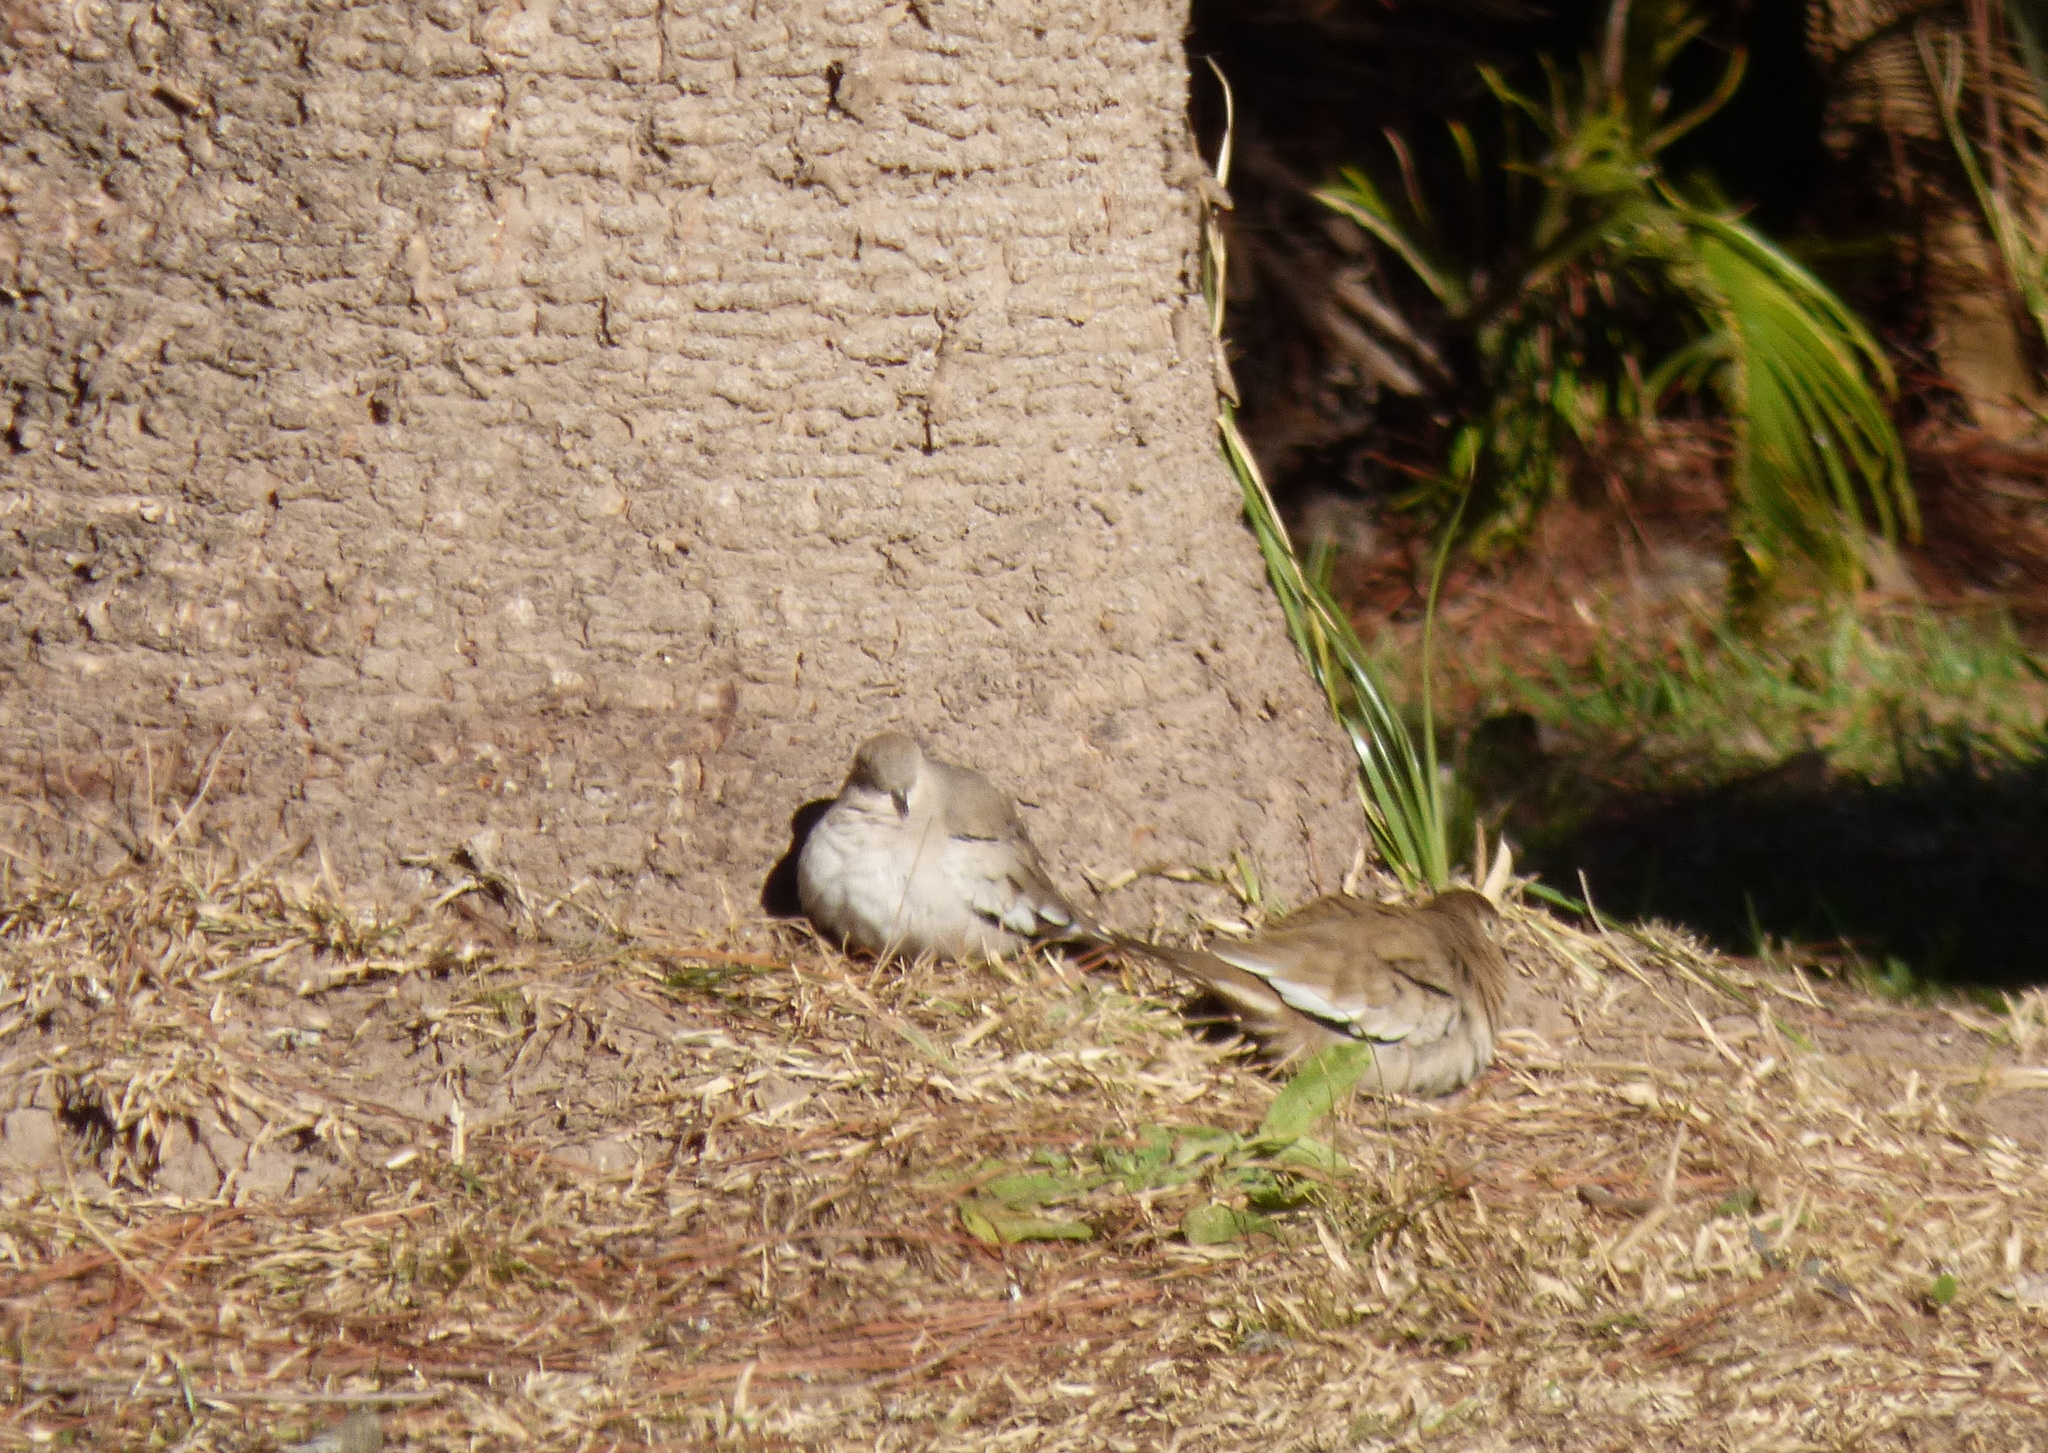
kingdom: Animalia
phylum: Chordata
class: Aves
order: Columbiformes
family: Columbidae
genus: Columbina
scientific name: Columbina picui
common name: Picui ground dove
